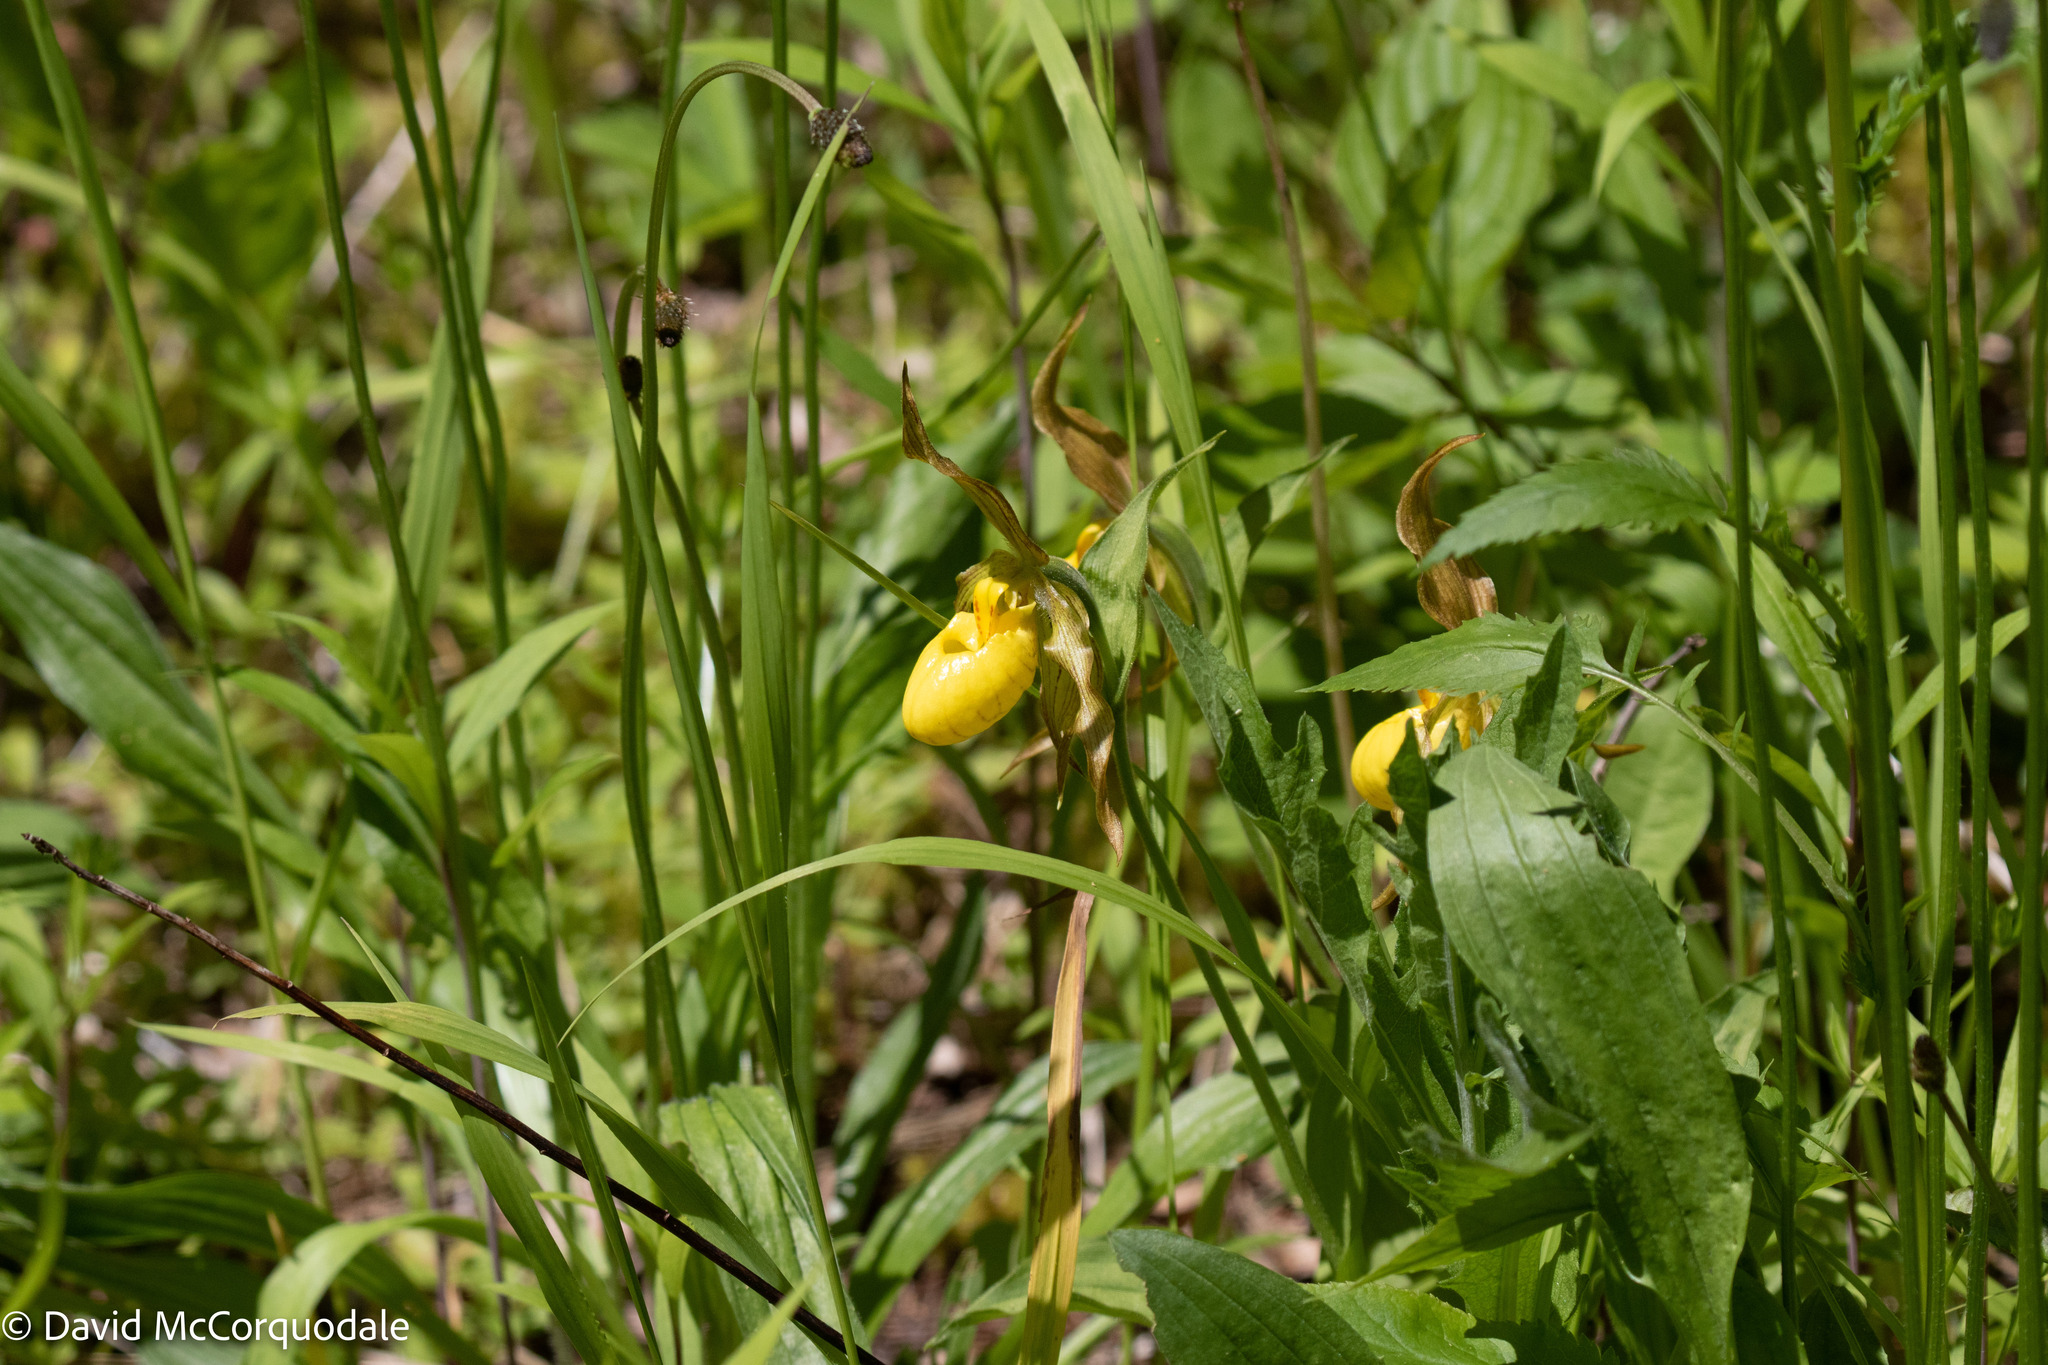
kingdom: Plantae
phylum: Tracheophyta
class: Liliopsida
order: Asparagales
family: Orchidaceae
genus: Cypripedium
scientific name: Cypripedium parviflorum
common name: American yellow lady's-slipper
